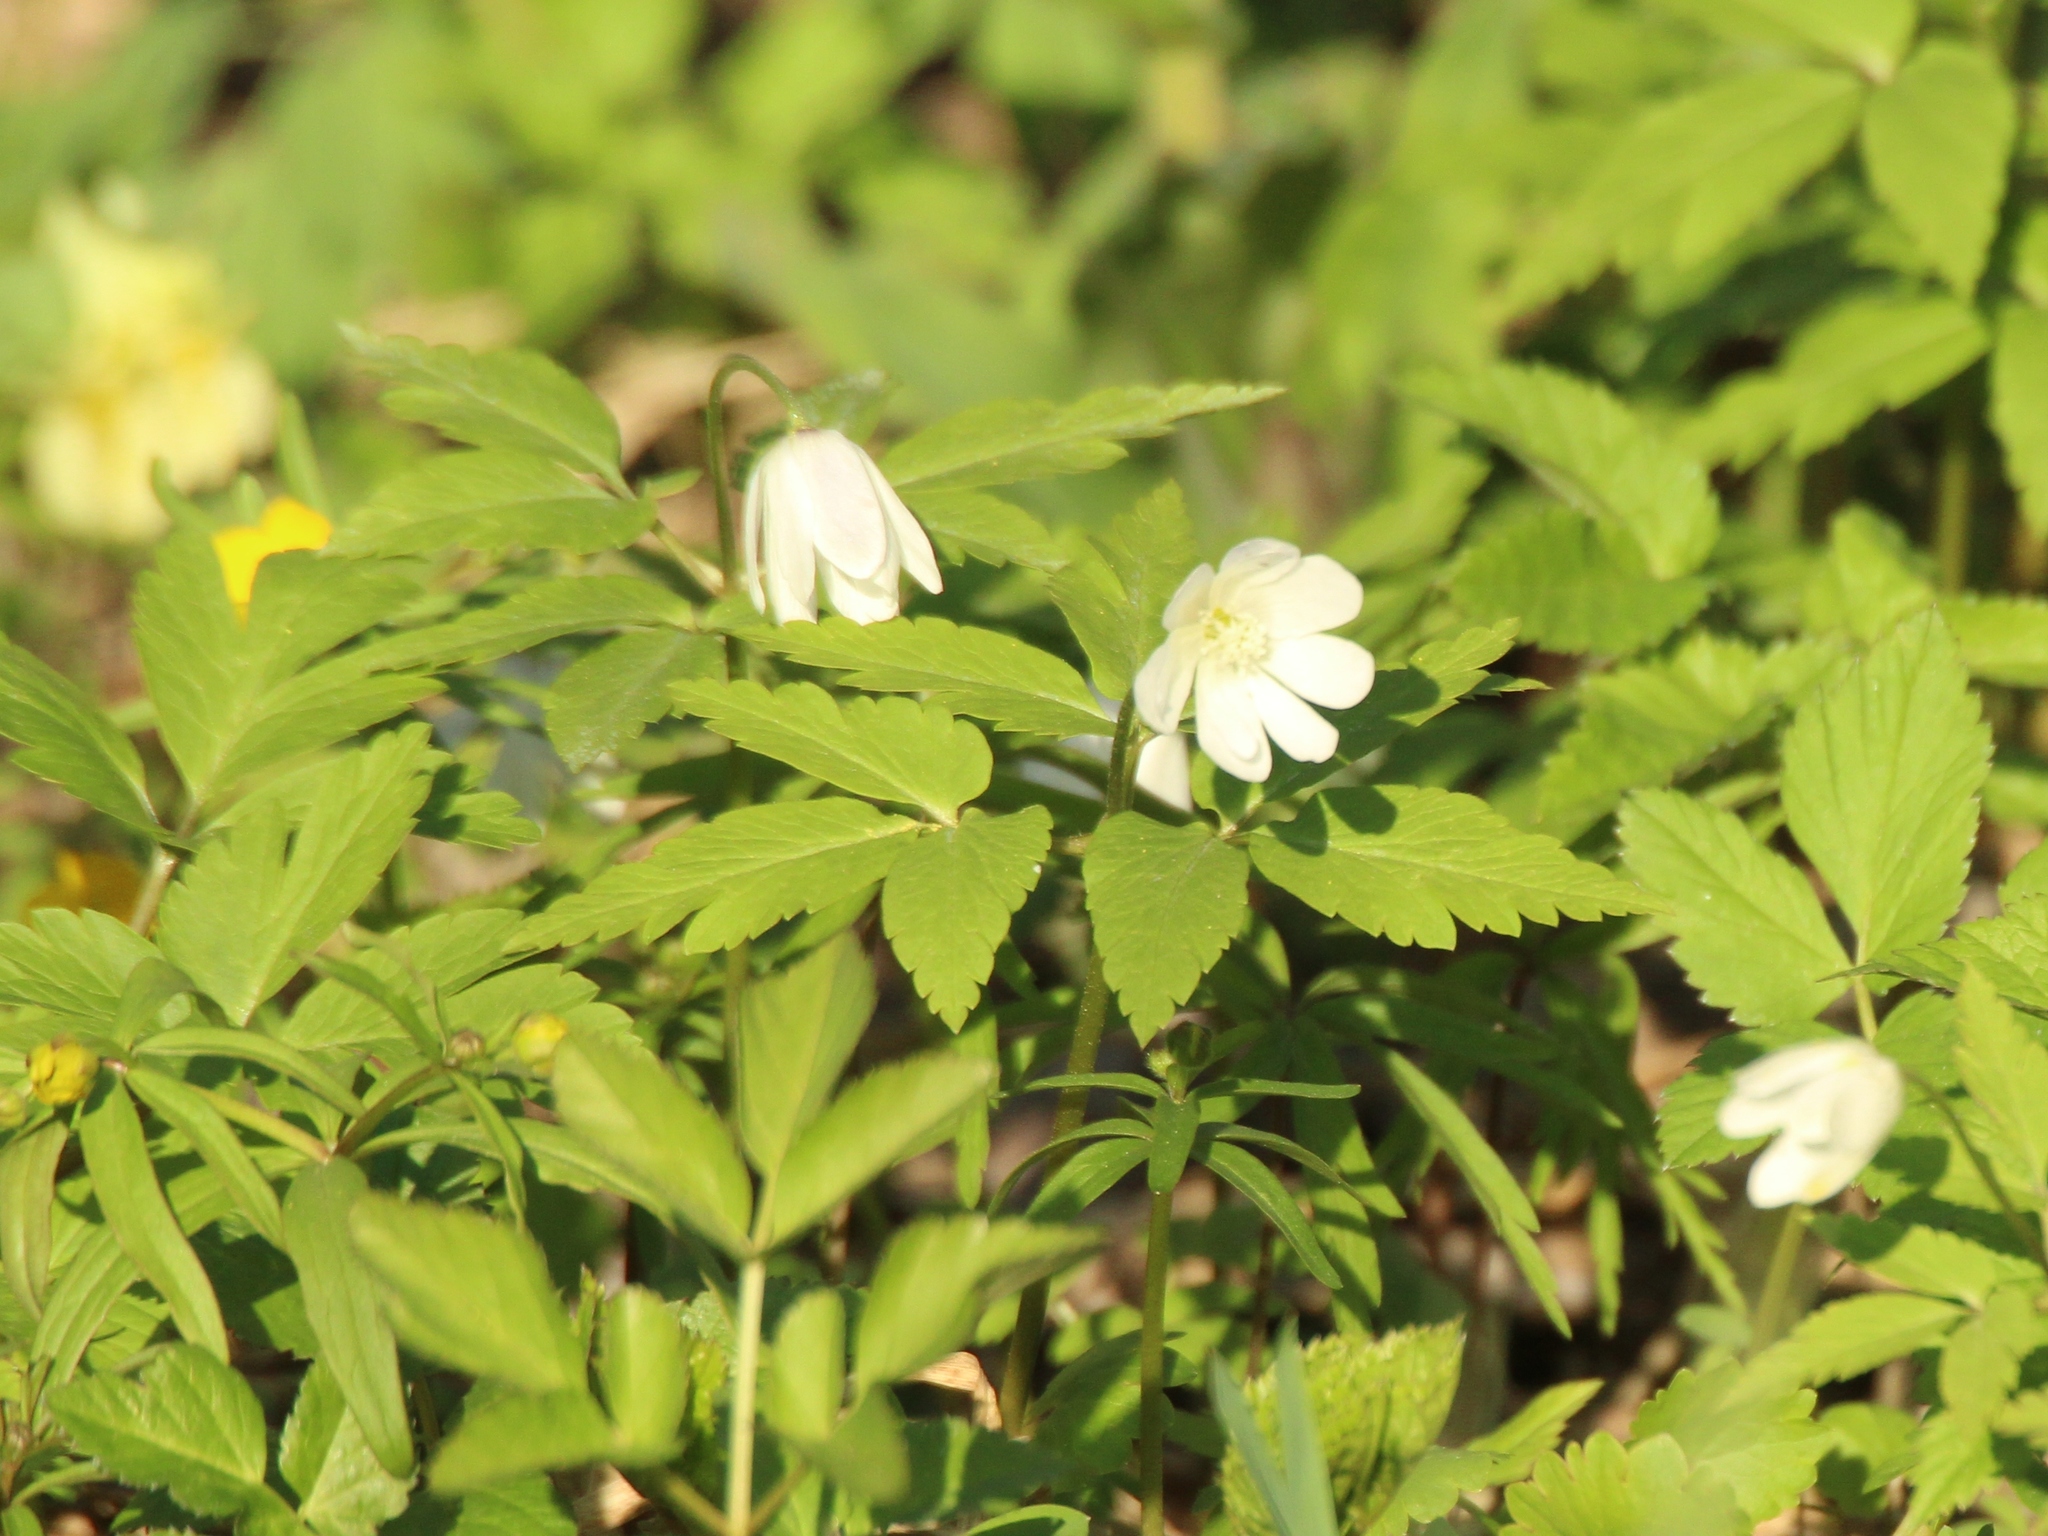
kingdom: Plantae
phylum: Tracheophyta
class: Magnoliopsida
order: Ranunculales
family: Ranunculaceae
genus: Anemone
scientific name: Anemone altaica
